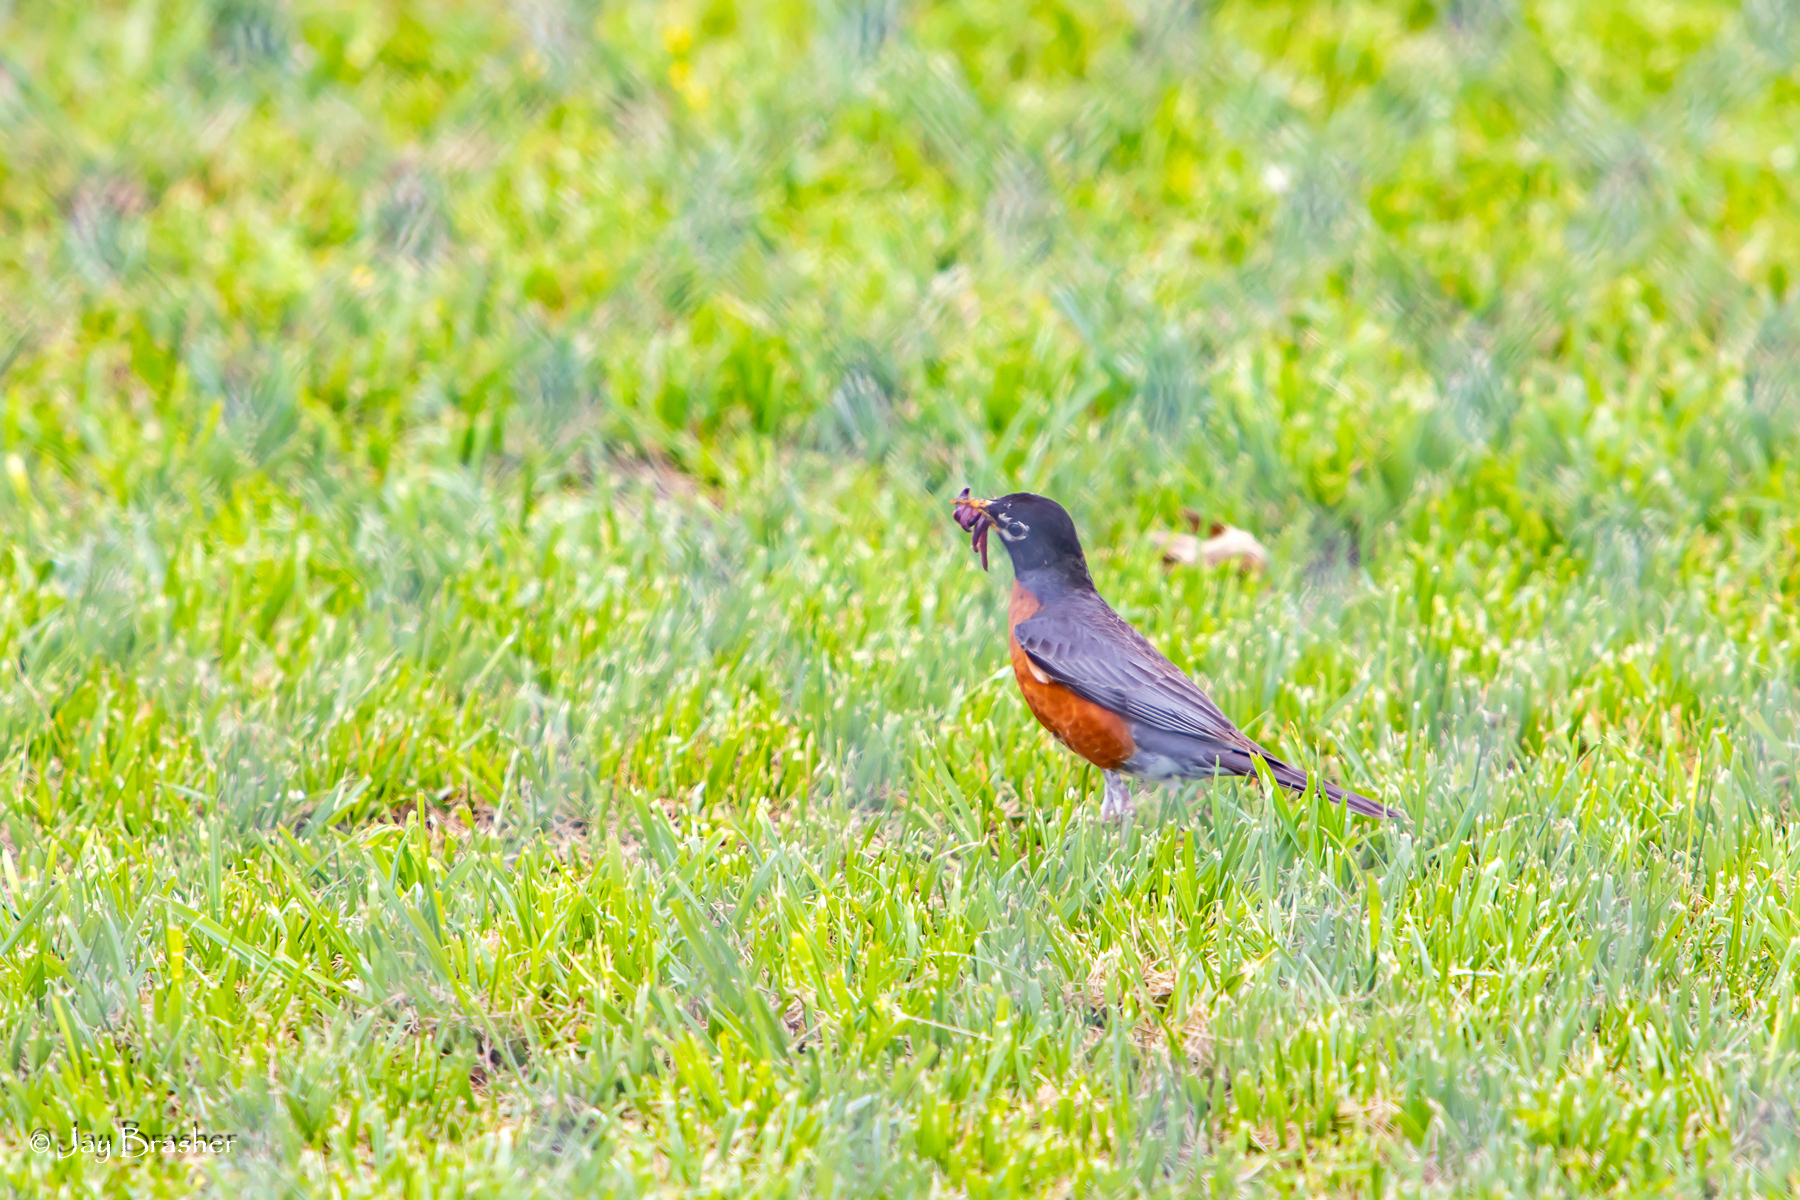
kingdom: Animalia
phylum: Chordata
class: Aves
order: Passeriformes
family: Turdidae
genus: Turdus
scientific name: Turdus migratorius
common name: American robin
